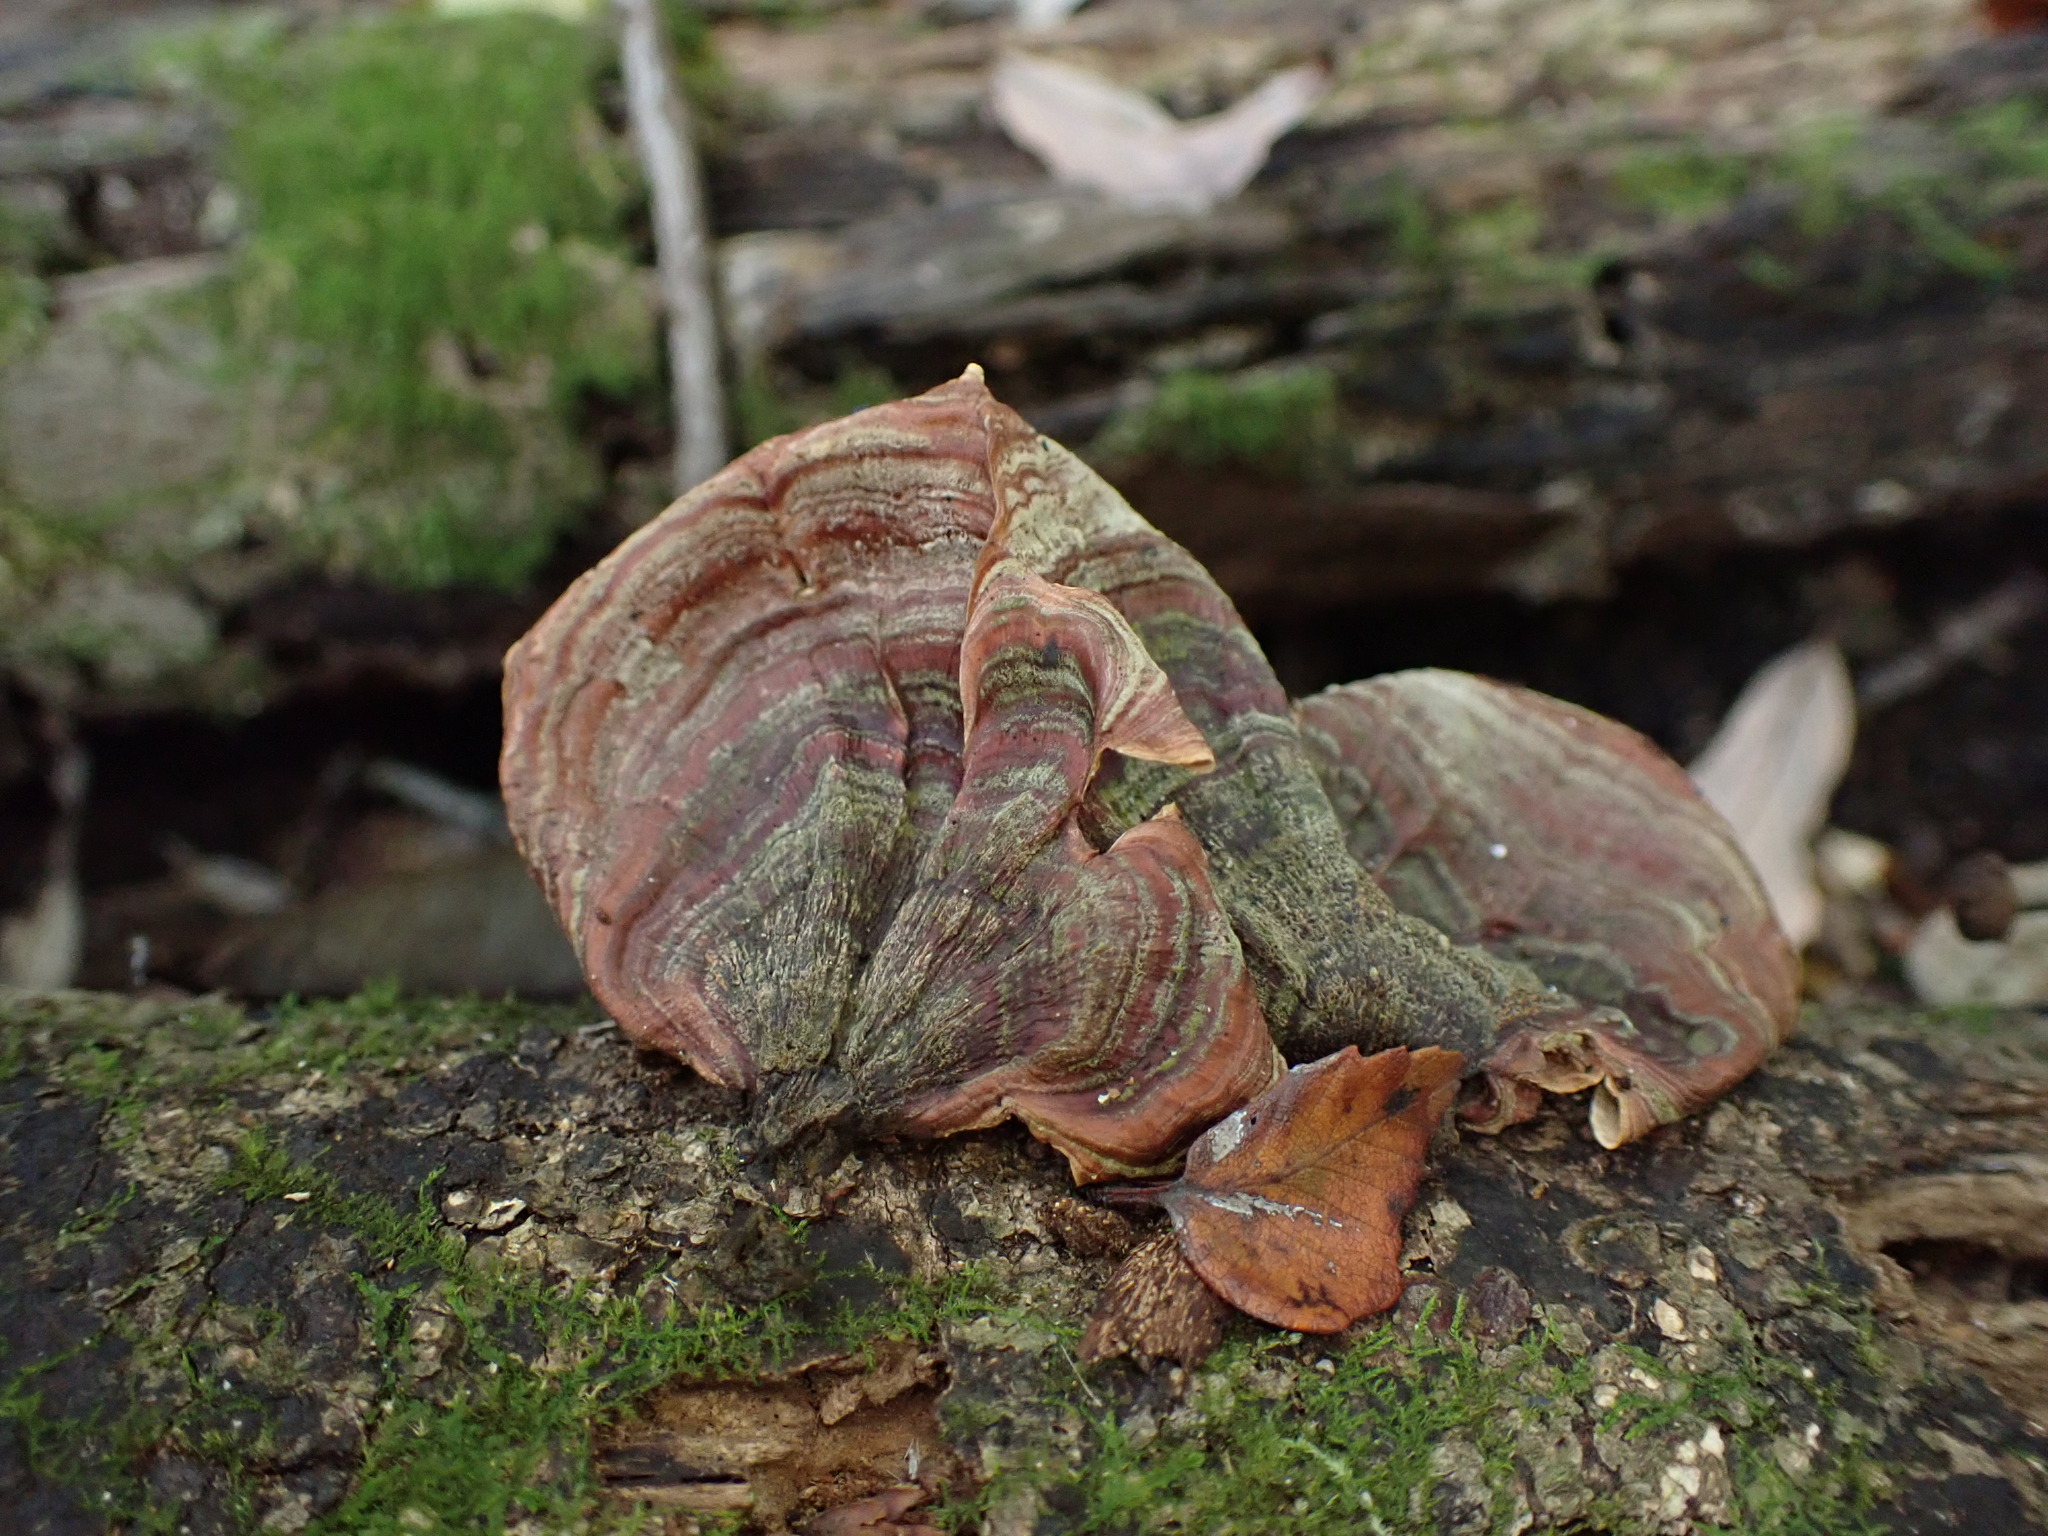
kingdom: Fungi
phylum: Basidiomycota
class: Agaricomycetes
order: Russulales
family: Stereaceae
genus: Stereum
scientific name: Stereum ostrea
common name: False turkeytail
